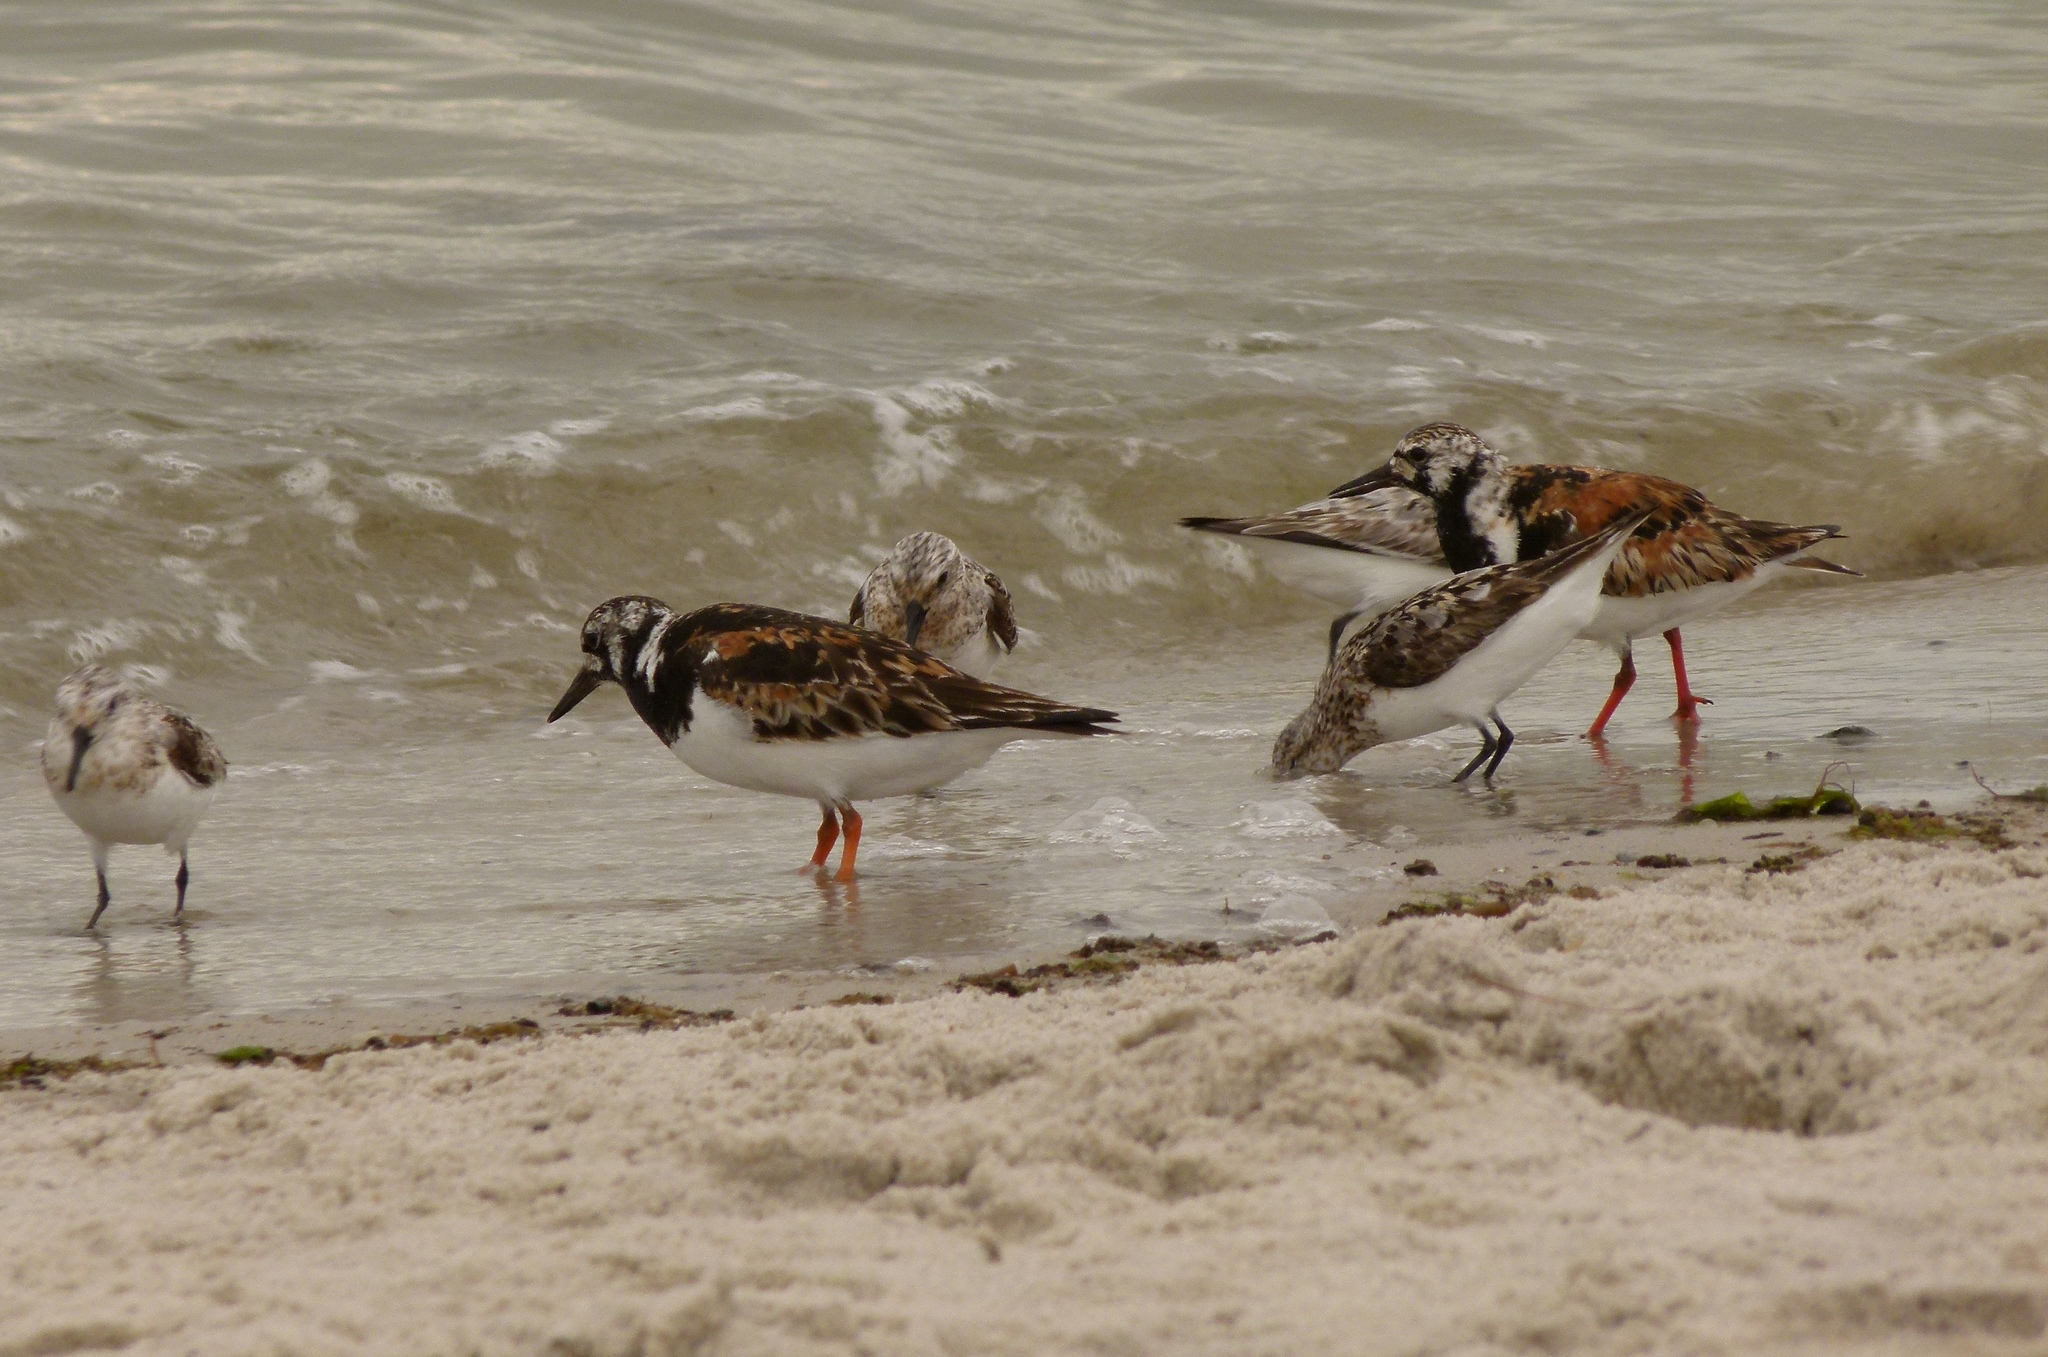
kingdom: Animalia
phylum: Chordata
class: Aves
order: Charadriiformes
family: Scolopacidae
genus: Arenaria
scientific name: Arenaria interpres
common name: Ruddy turnstone
